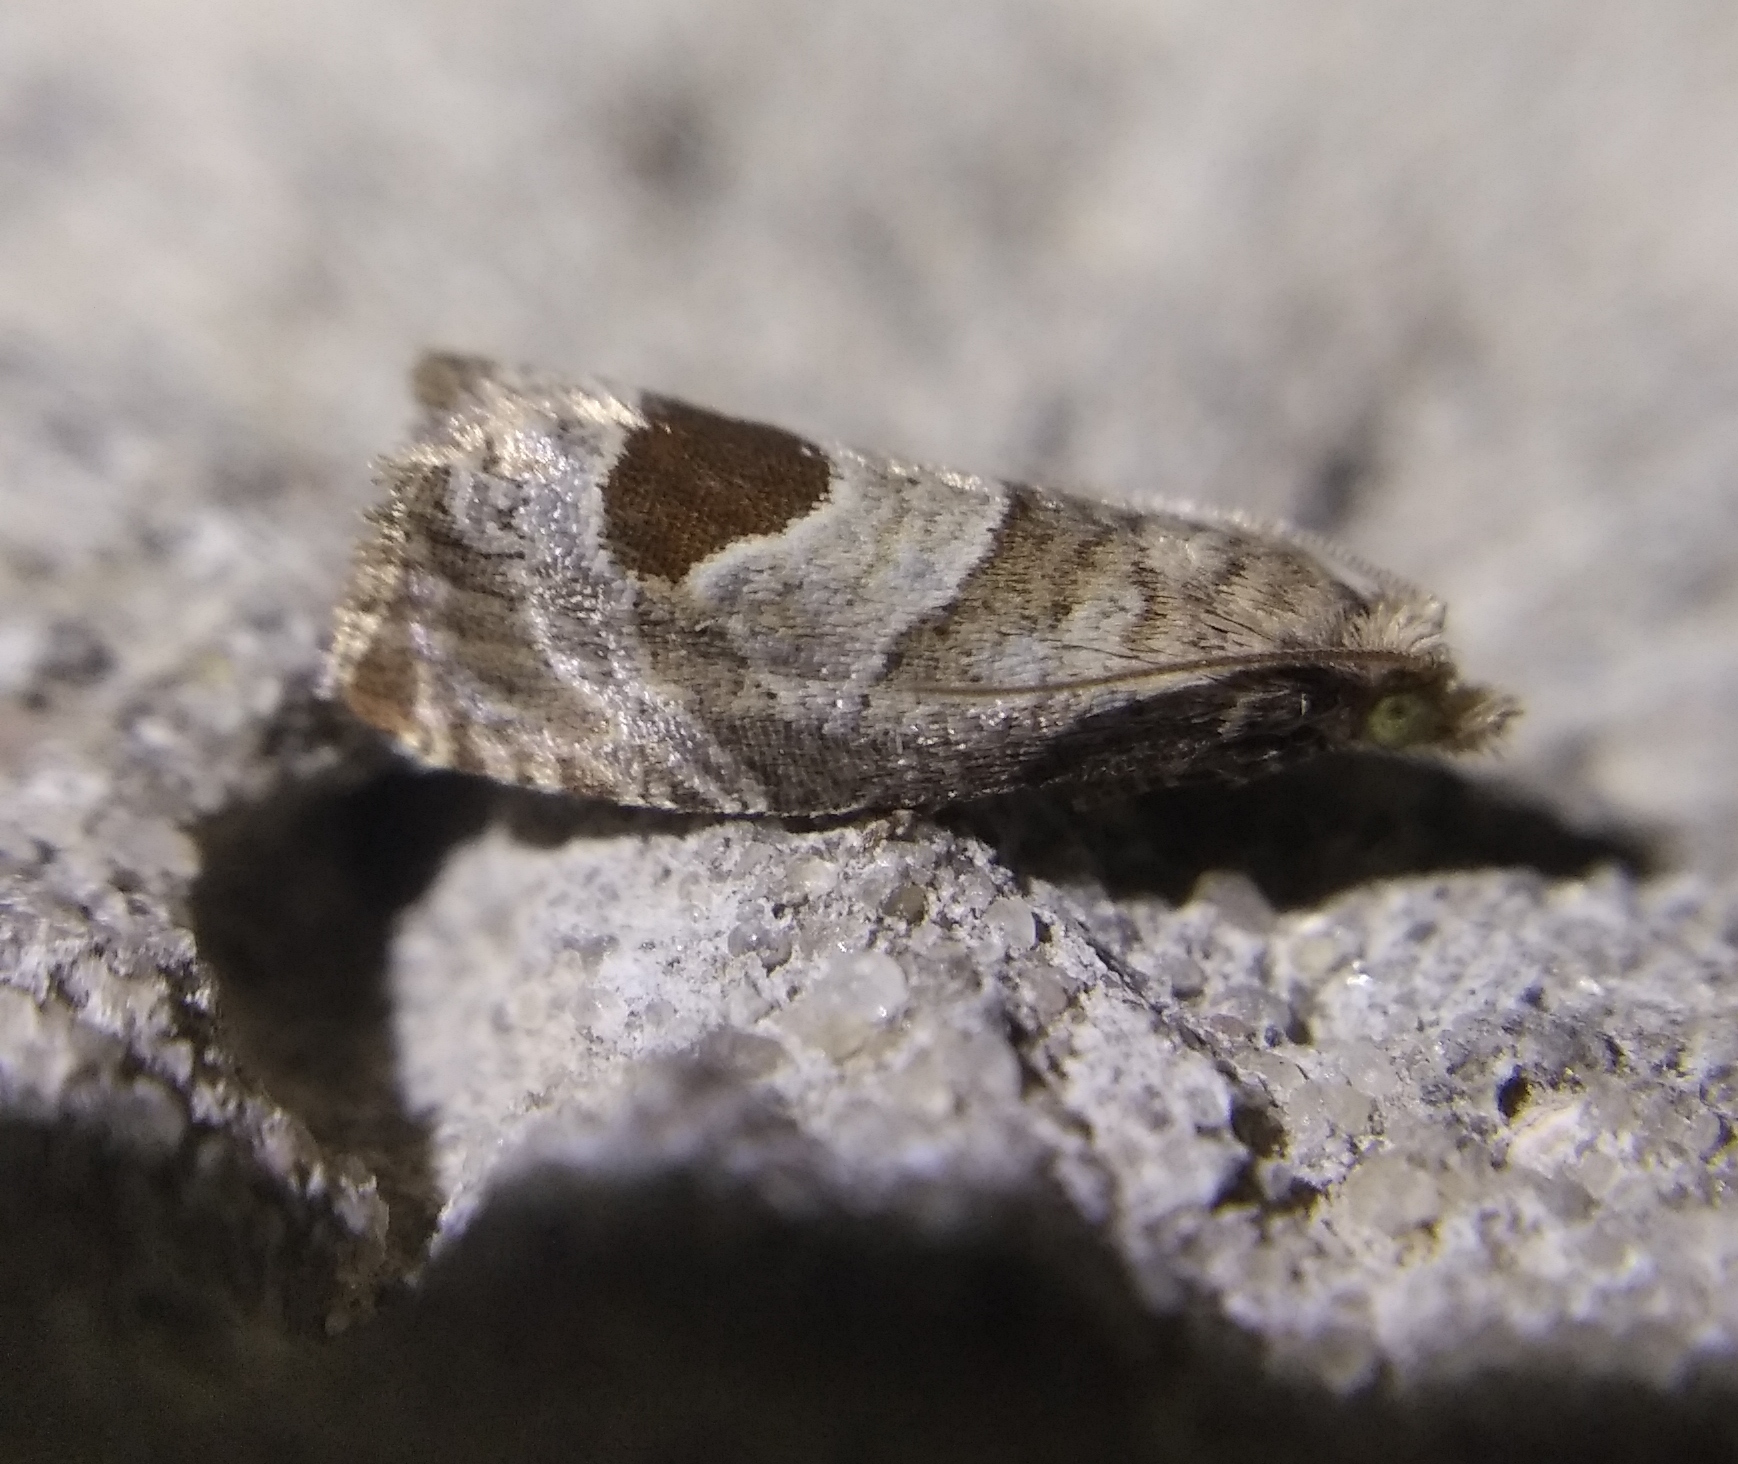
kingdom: Animalia
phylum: Arthropoda
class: Insecta
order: Lepidoptera
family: Tortricidae
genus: Notocelia
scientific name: Notocelia uddmanniana
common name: Bramble shoot moth
